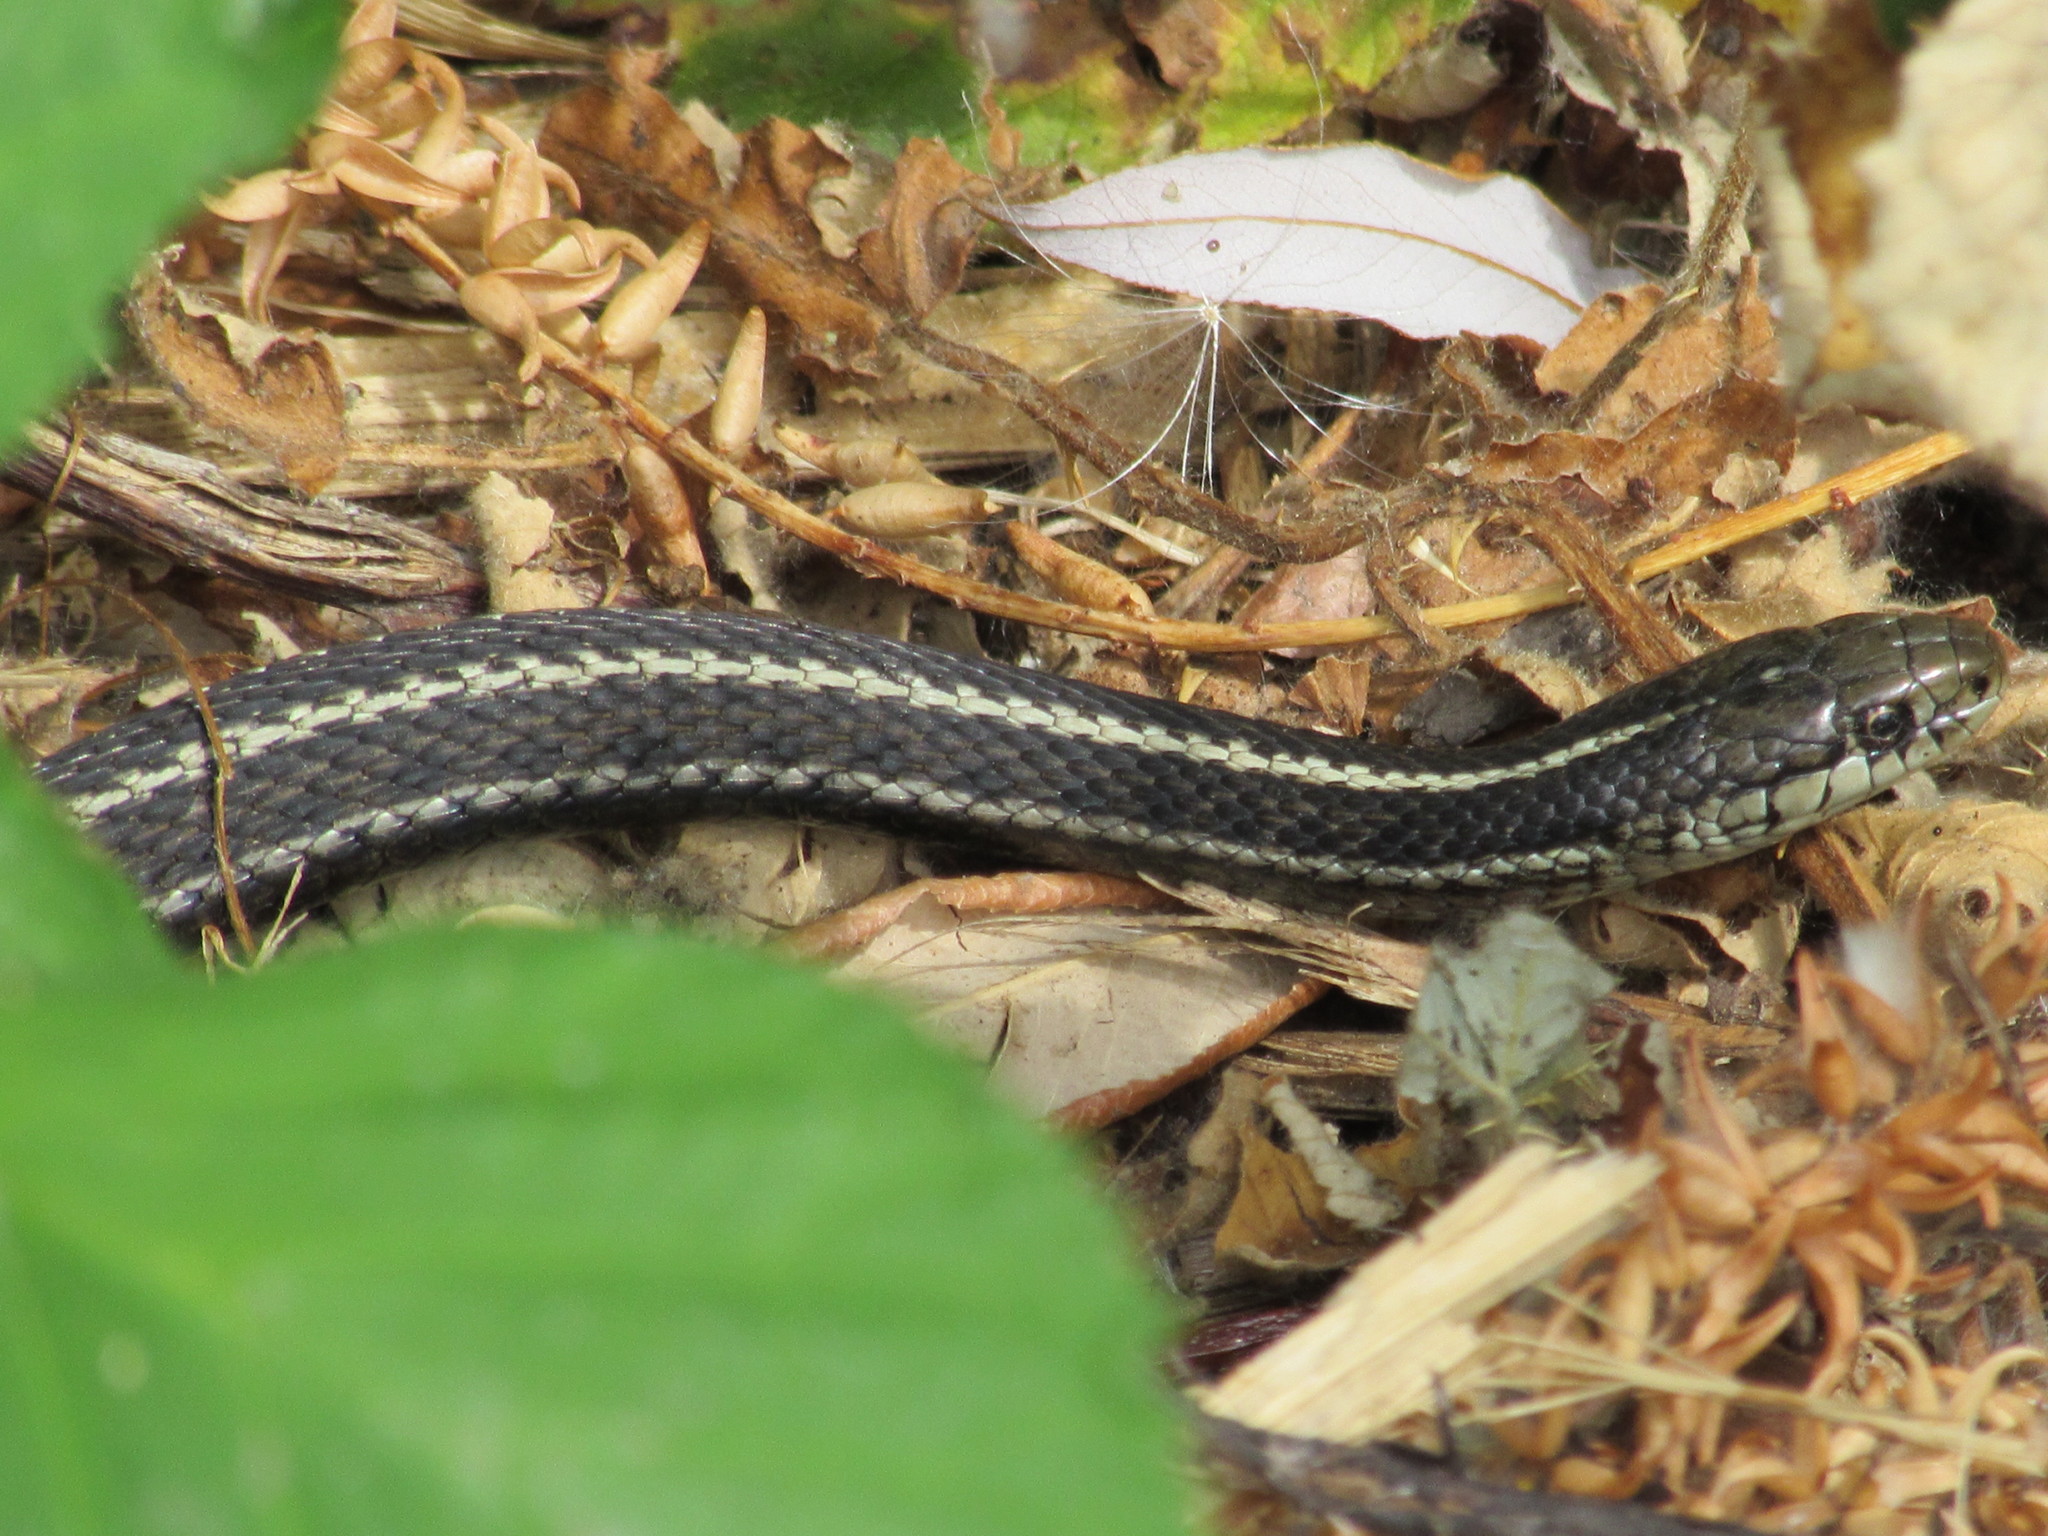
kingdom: Animalia
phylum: Chordata
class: Squamata
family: Colubridae
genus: Thamnophis
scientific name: Thamnophis ordinoides
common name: Northwestern garter snake
